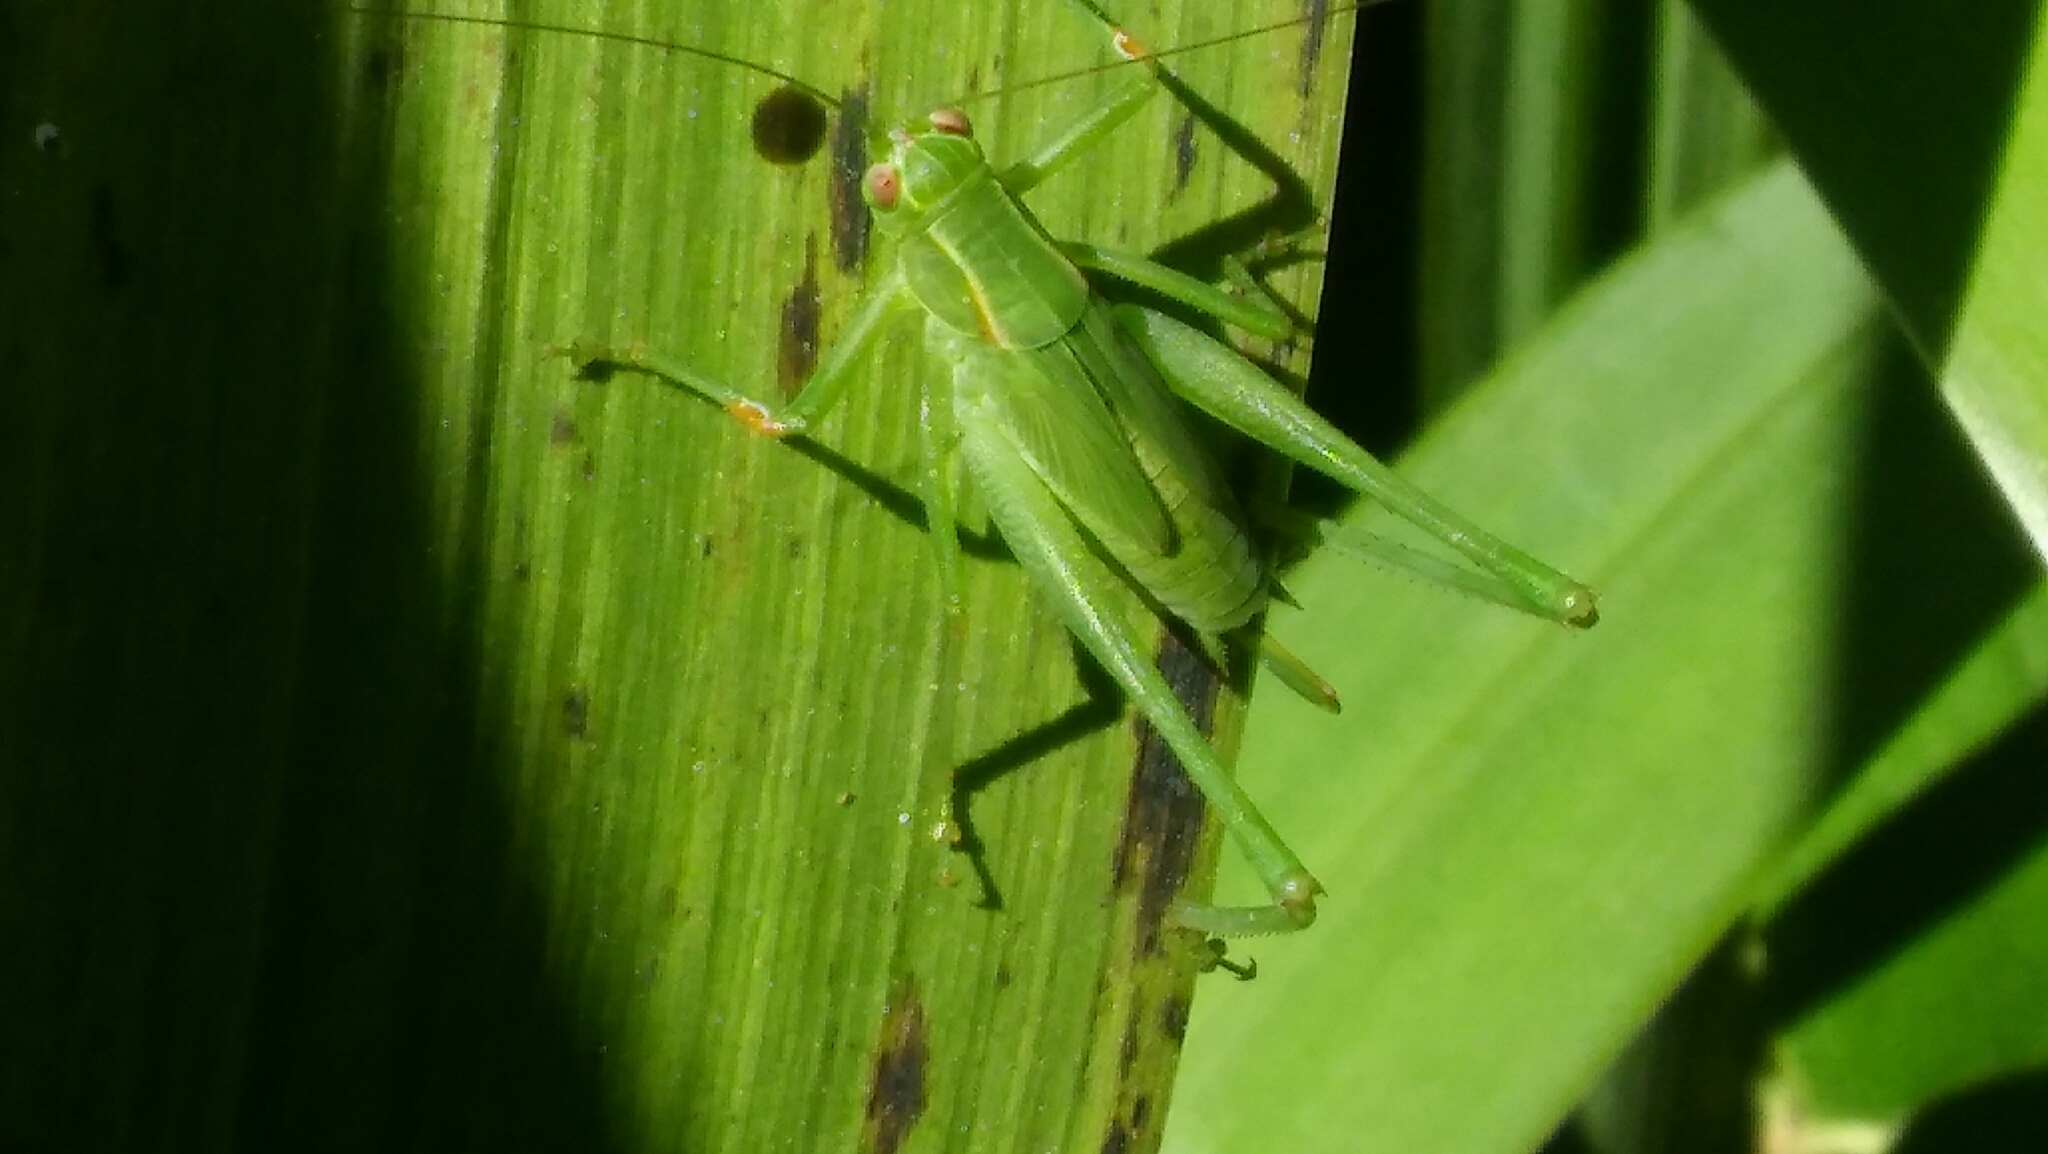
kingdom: Animalia
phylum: Arthropoda
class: Insecta
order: Orthoptera
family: Tettigoniidae
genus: Ligocatinus
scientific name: Ligocatinus spinatus
